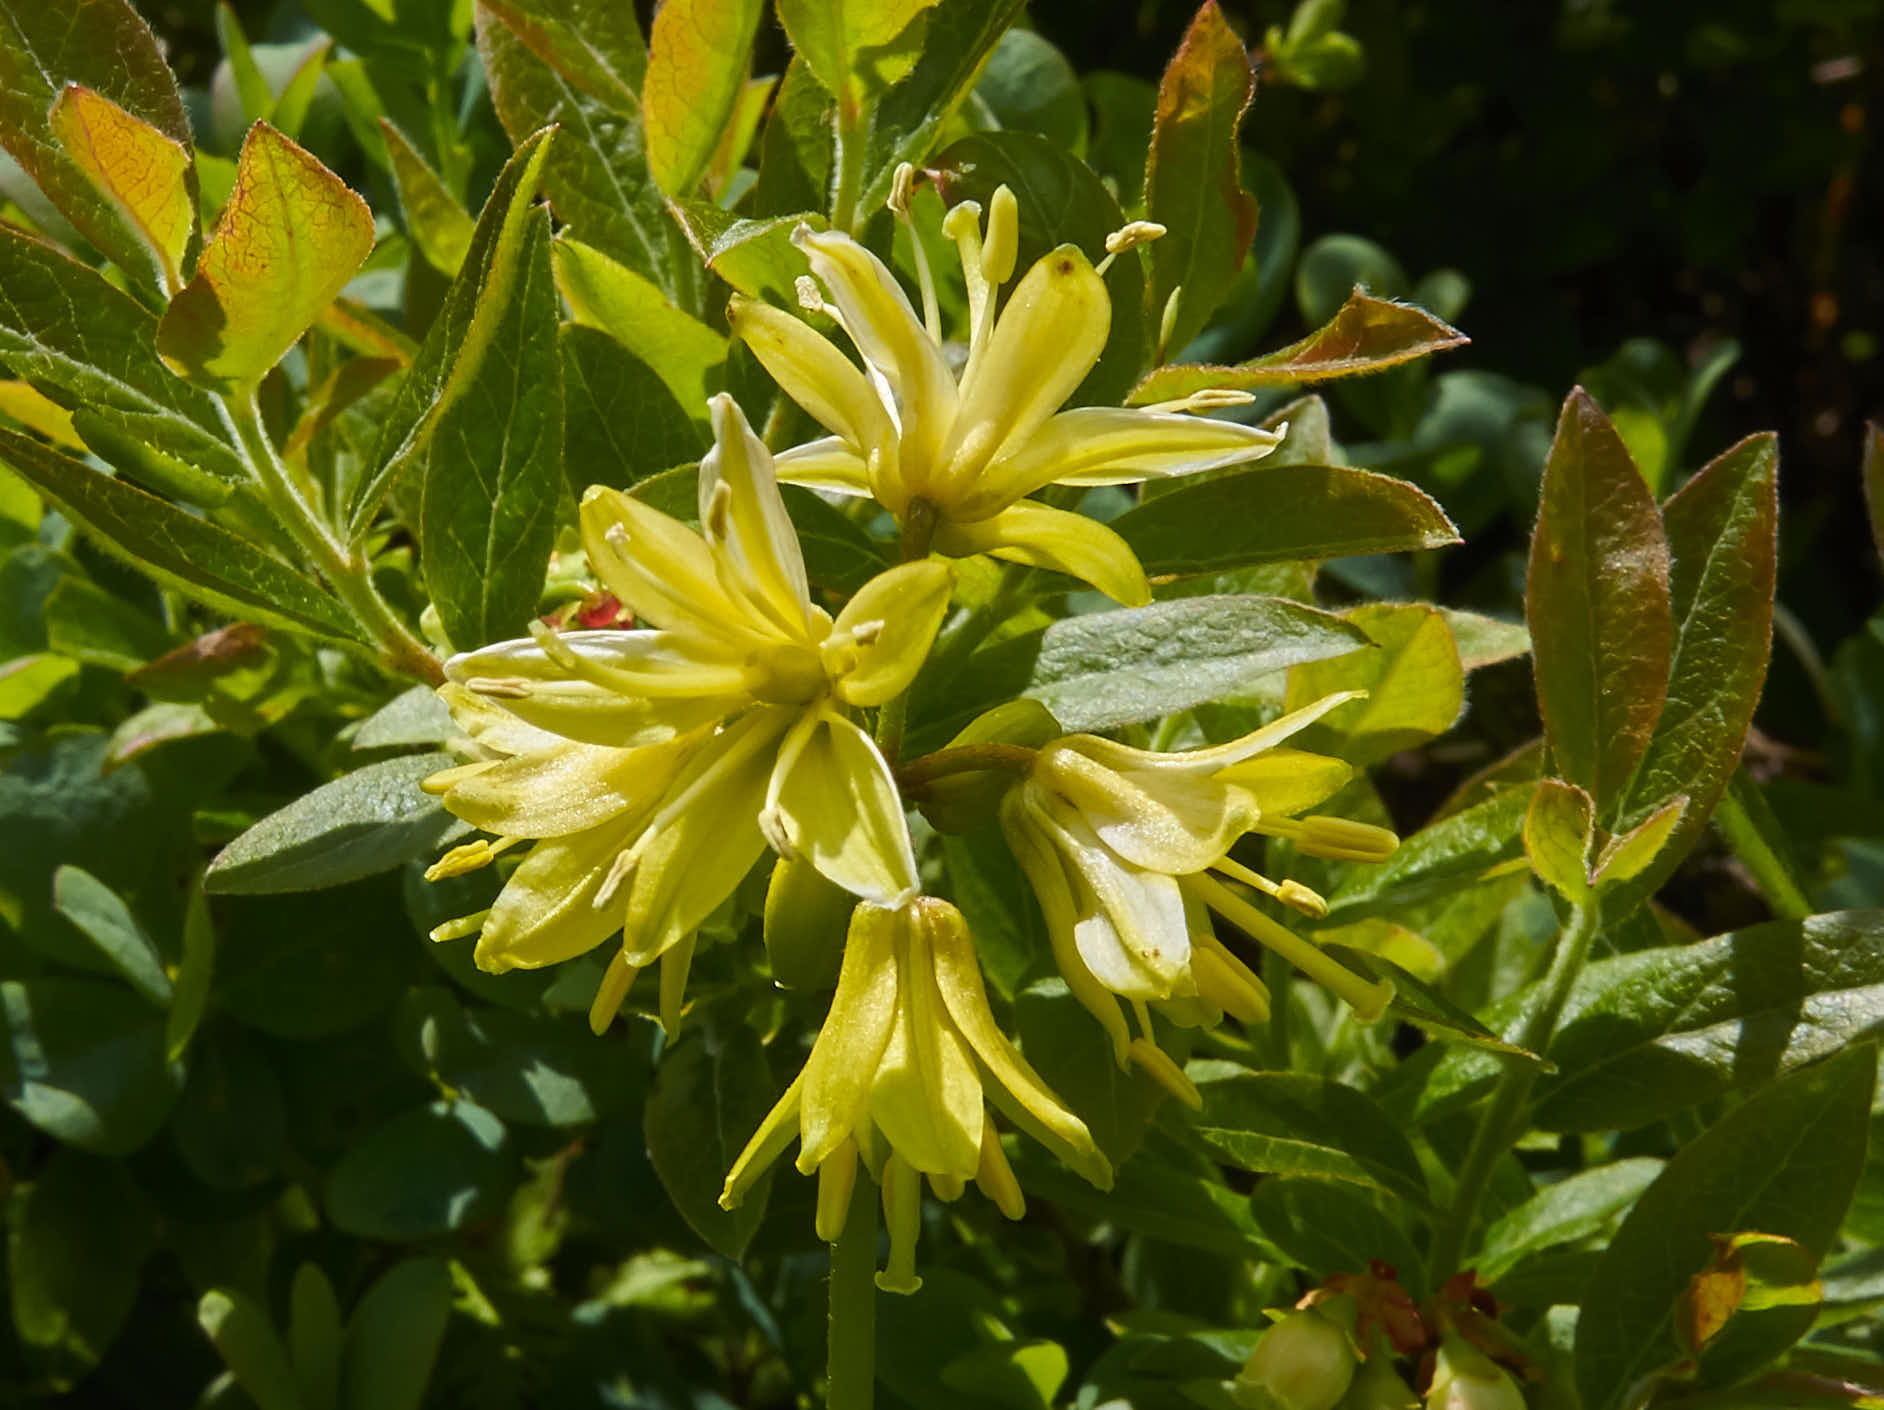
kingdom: Plantae
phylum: Tracheophyta
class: Liliopsida
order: Liliales
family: Liliaceae
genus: Clintonia
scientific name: Clintonia borealis
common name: Yellow clintonia
